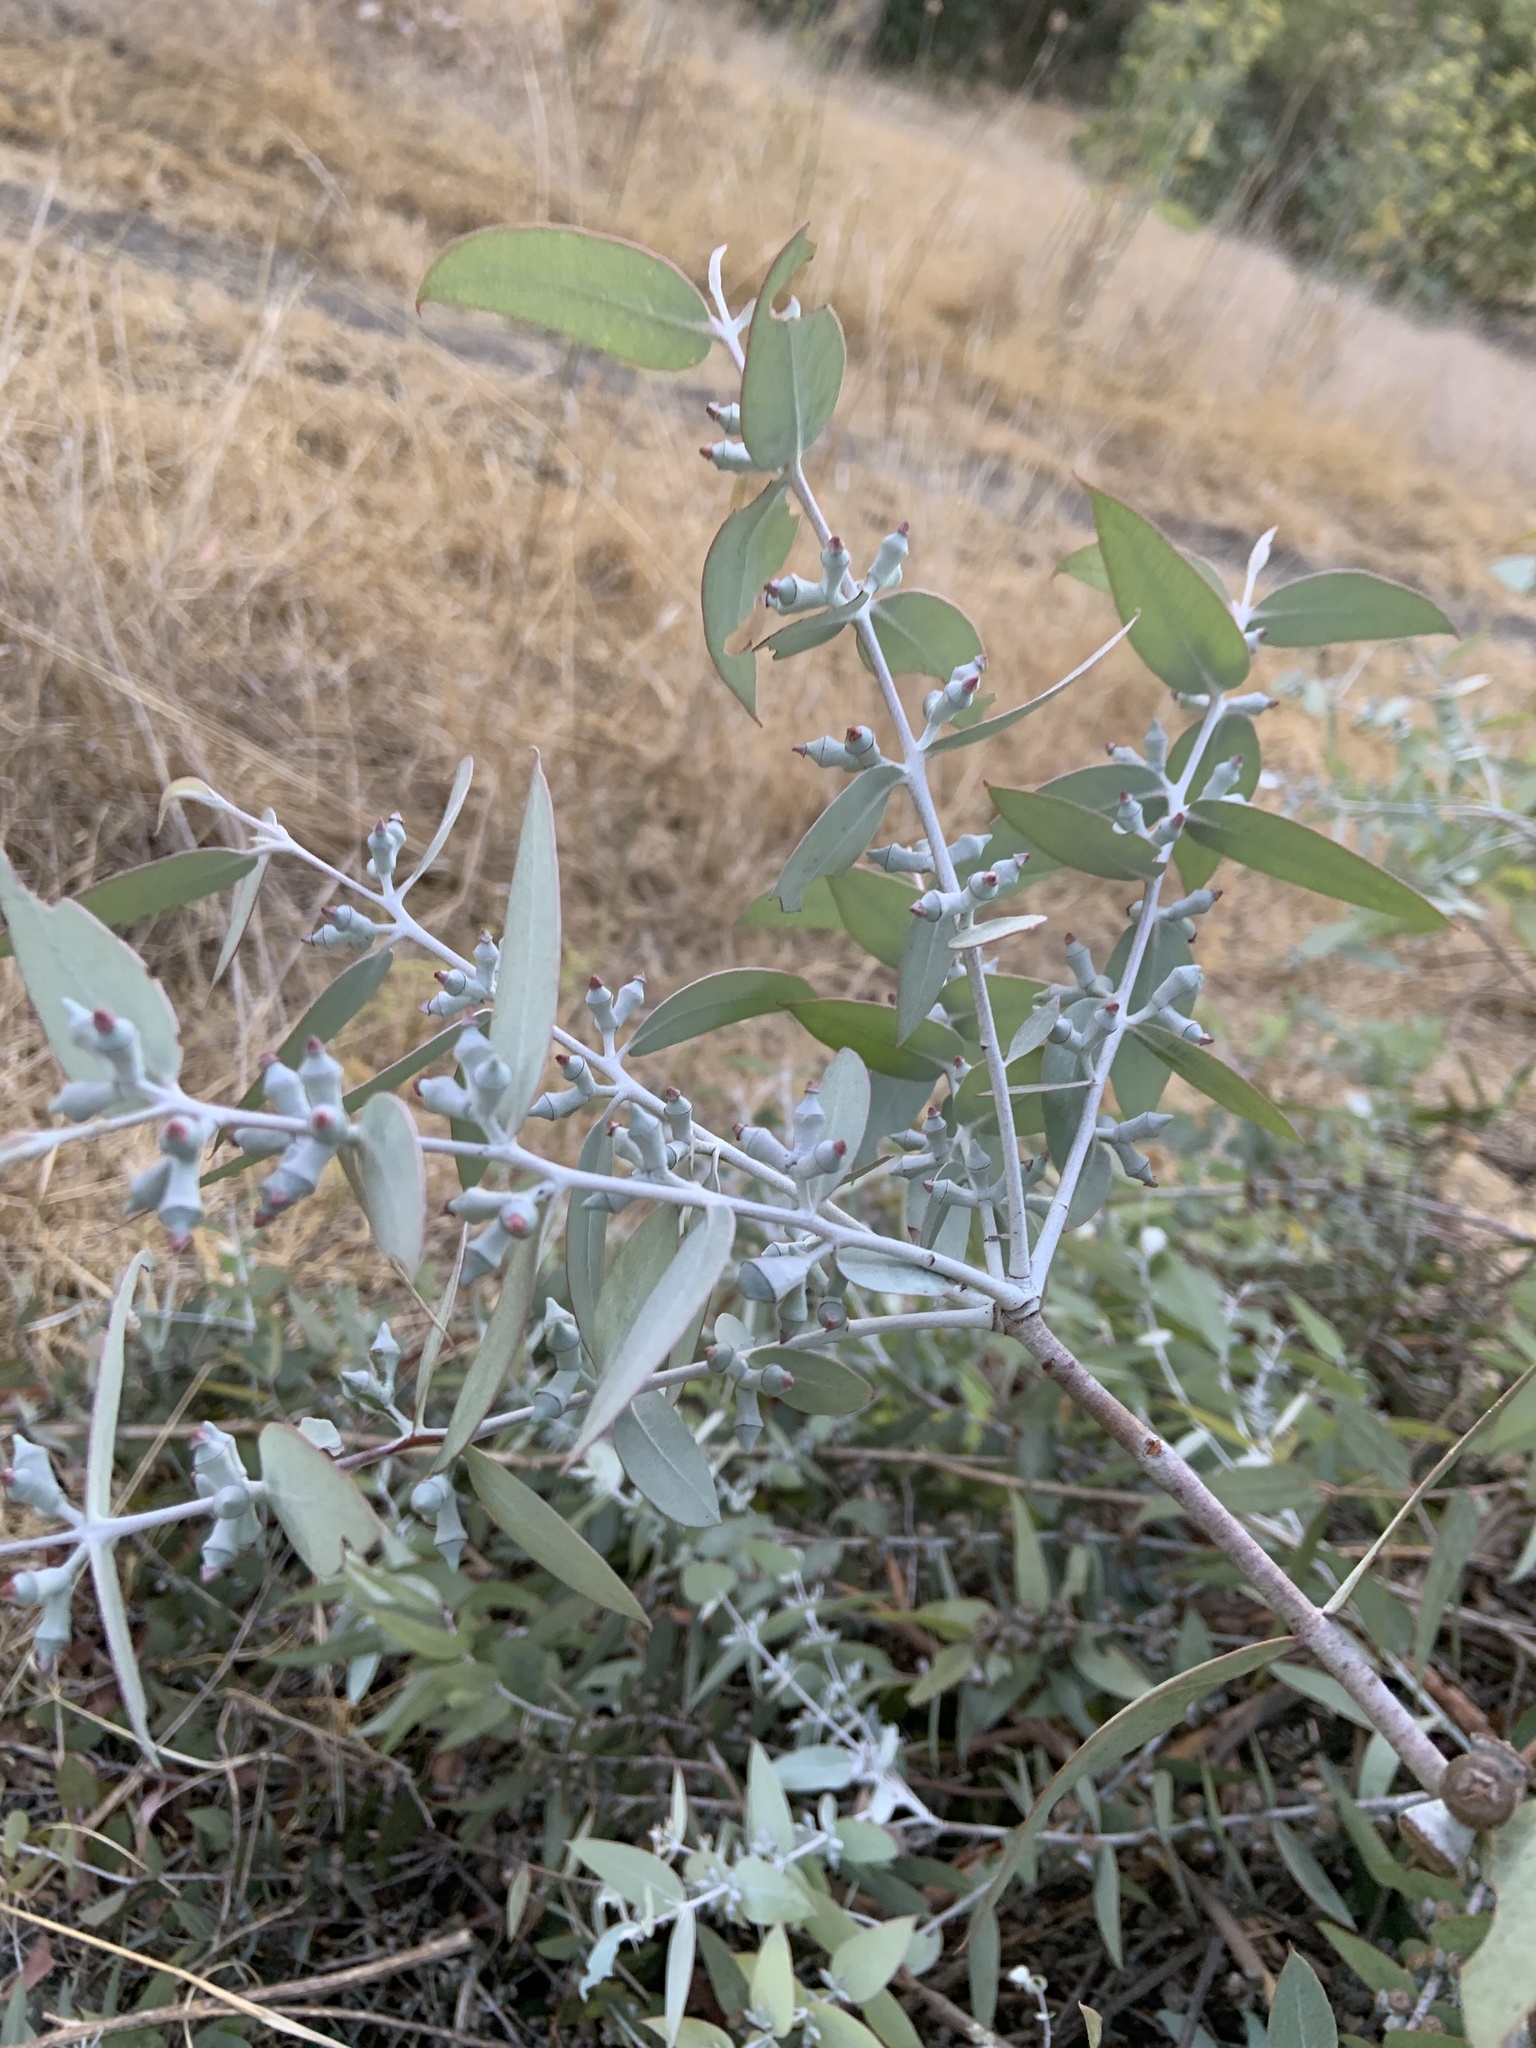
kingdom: Plantae
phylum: Tracheophyta
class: Magnoliopsida
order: Myrtales
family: Myrtaceae
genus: Eucalyptus
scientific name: Eucalyptus cinerea
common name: Argyle apple
